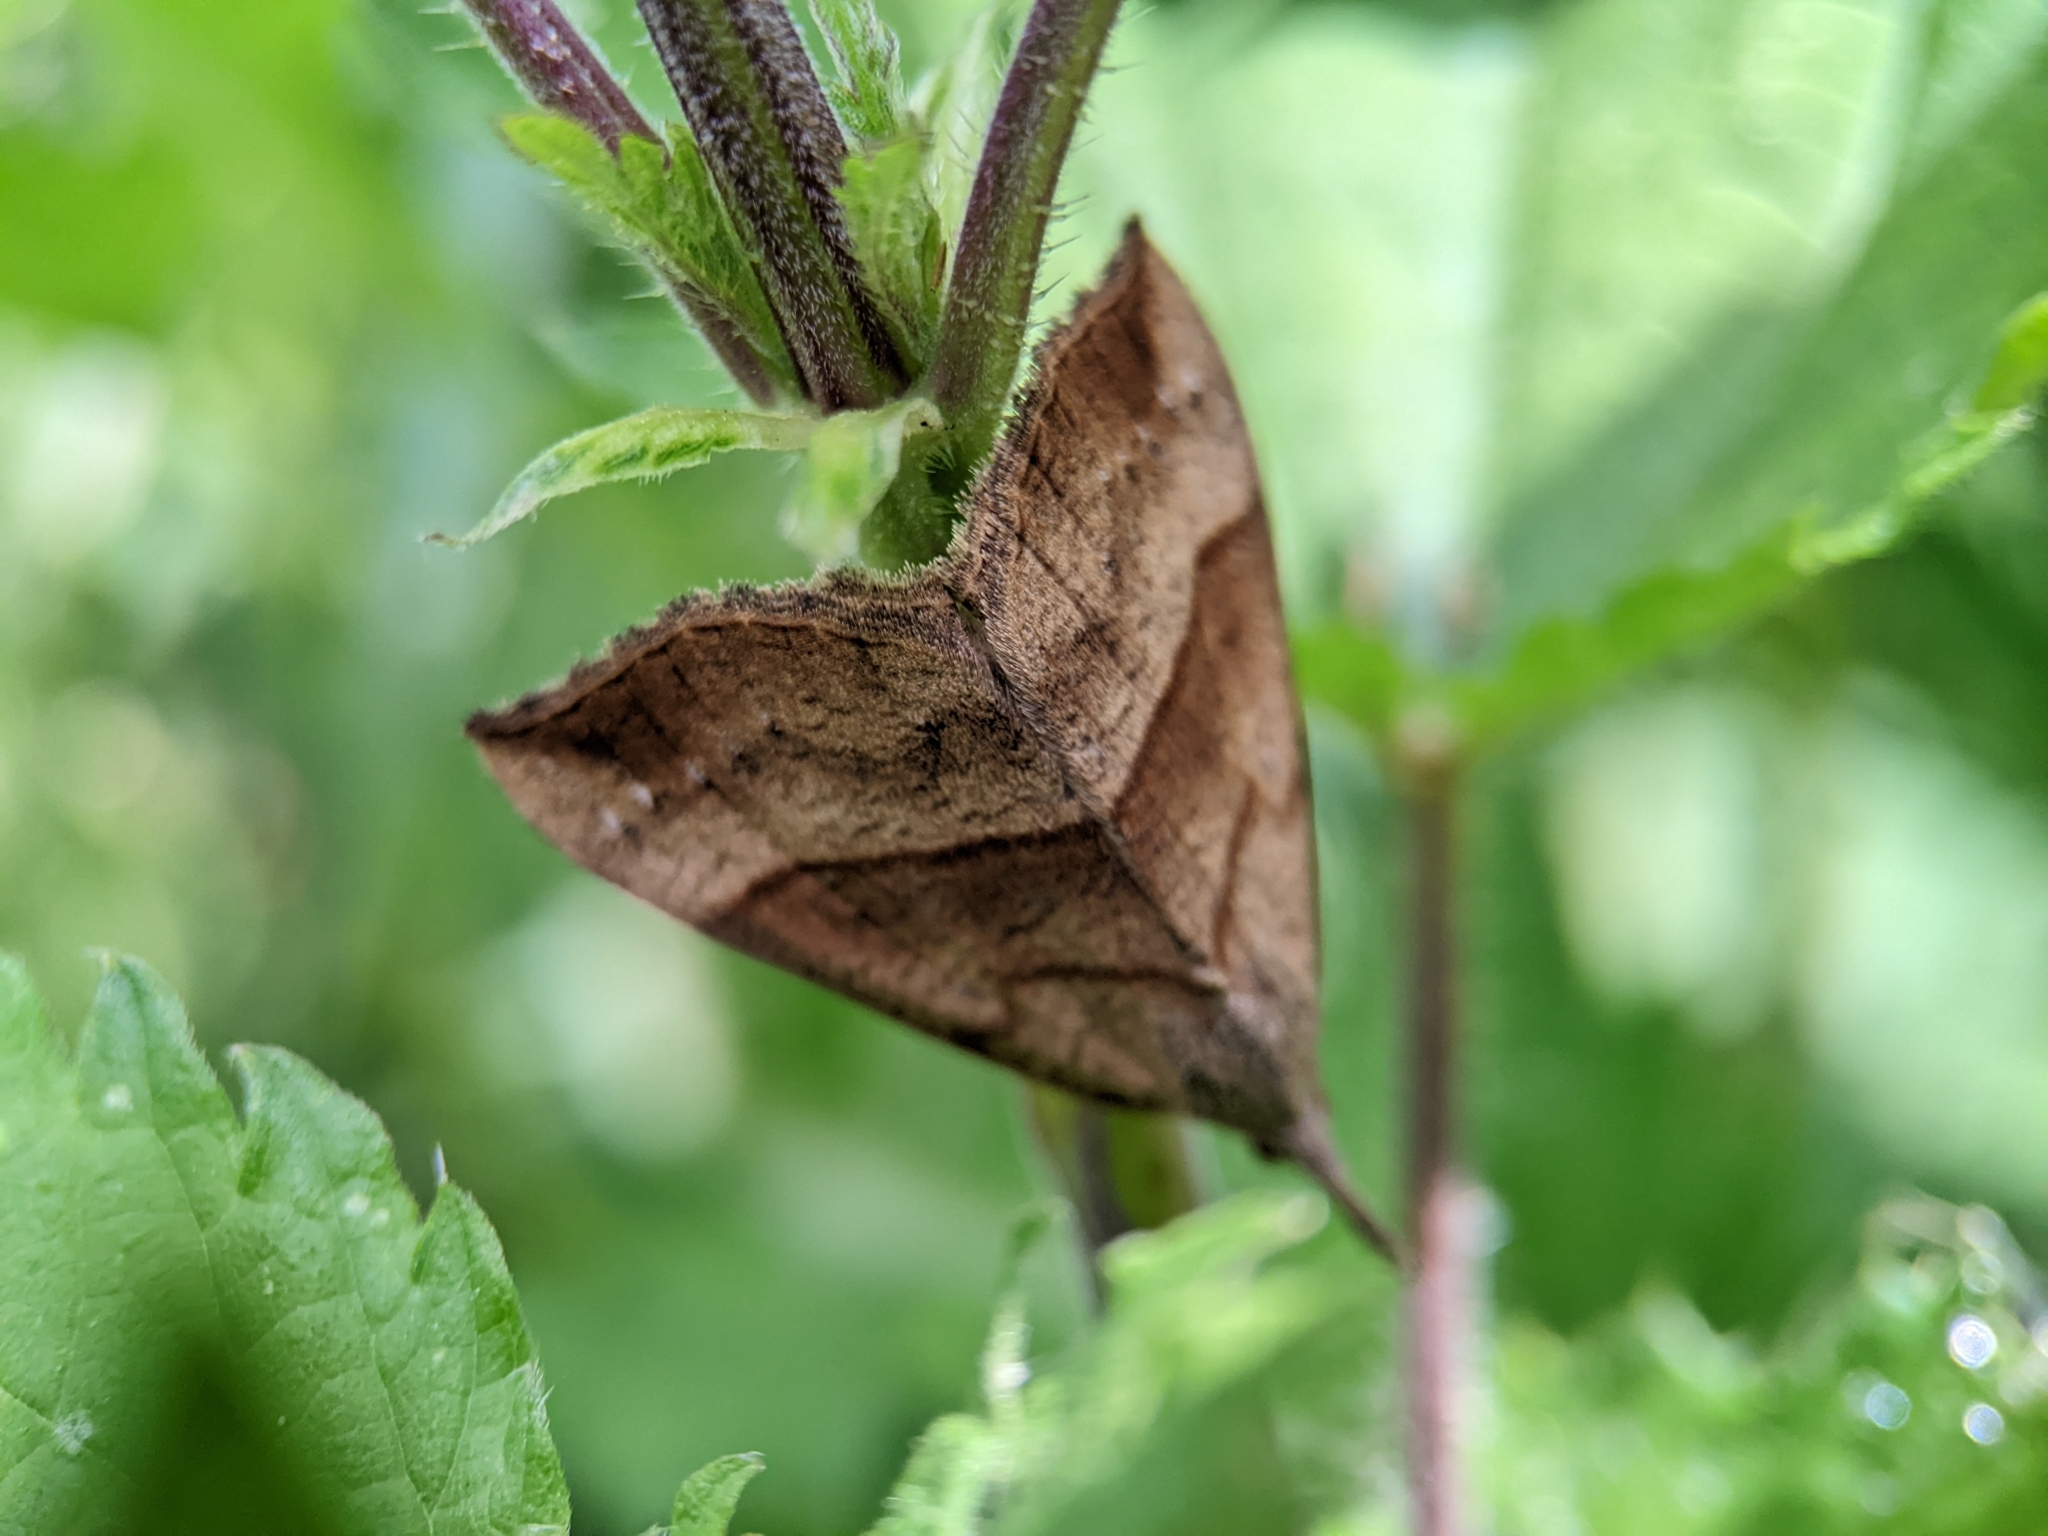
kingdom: Animalia
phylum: Arthropoda
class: Insecta
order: Lepidoptera
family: Erebidae
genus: Hypena
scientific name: Hypena proboscidalis
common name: Snout
